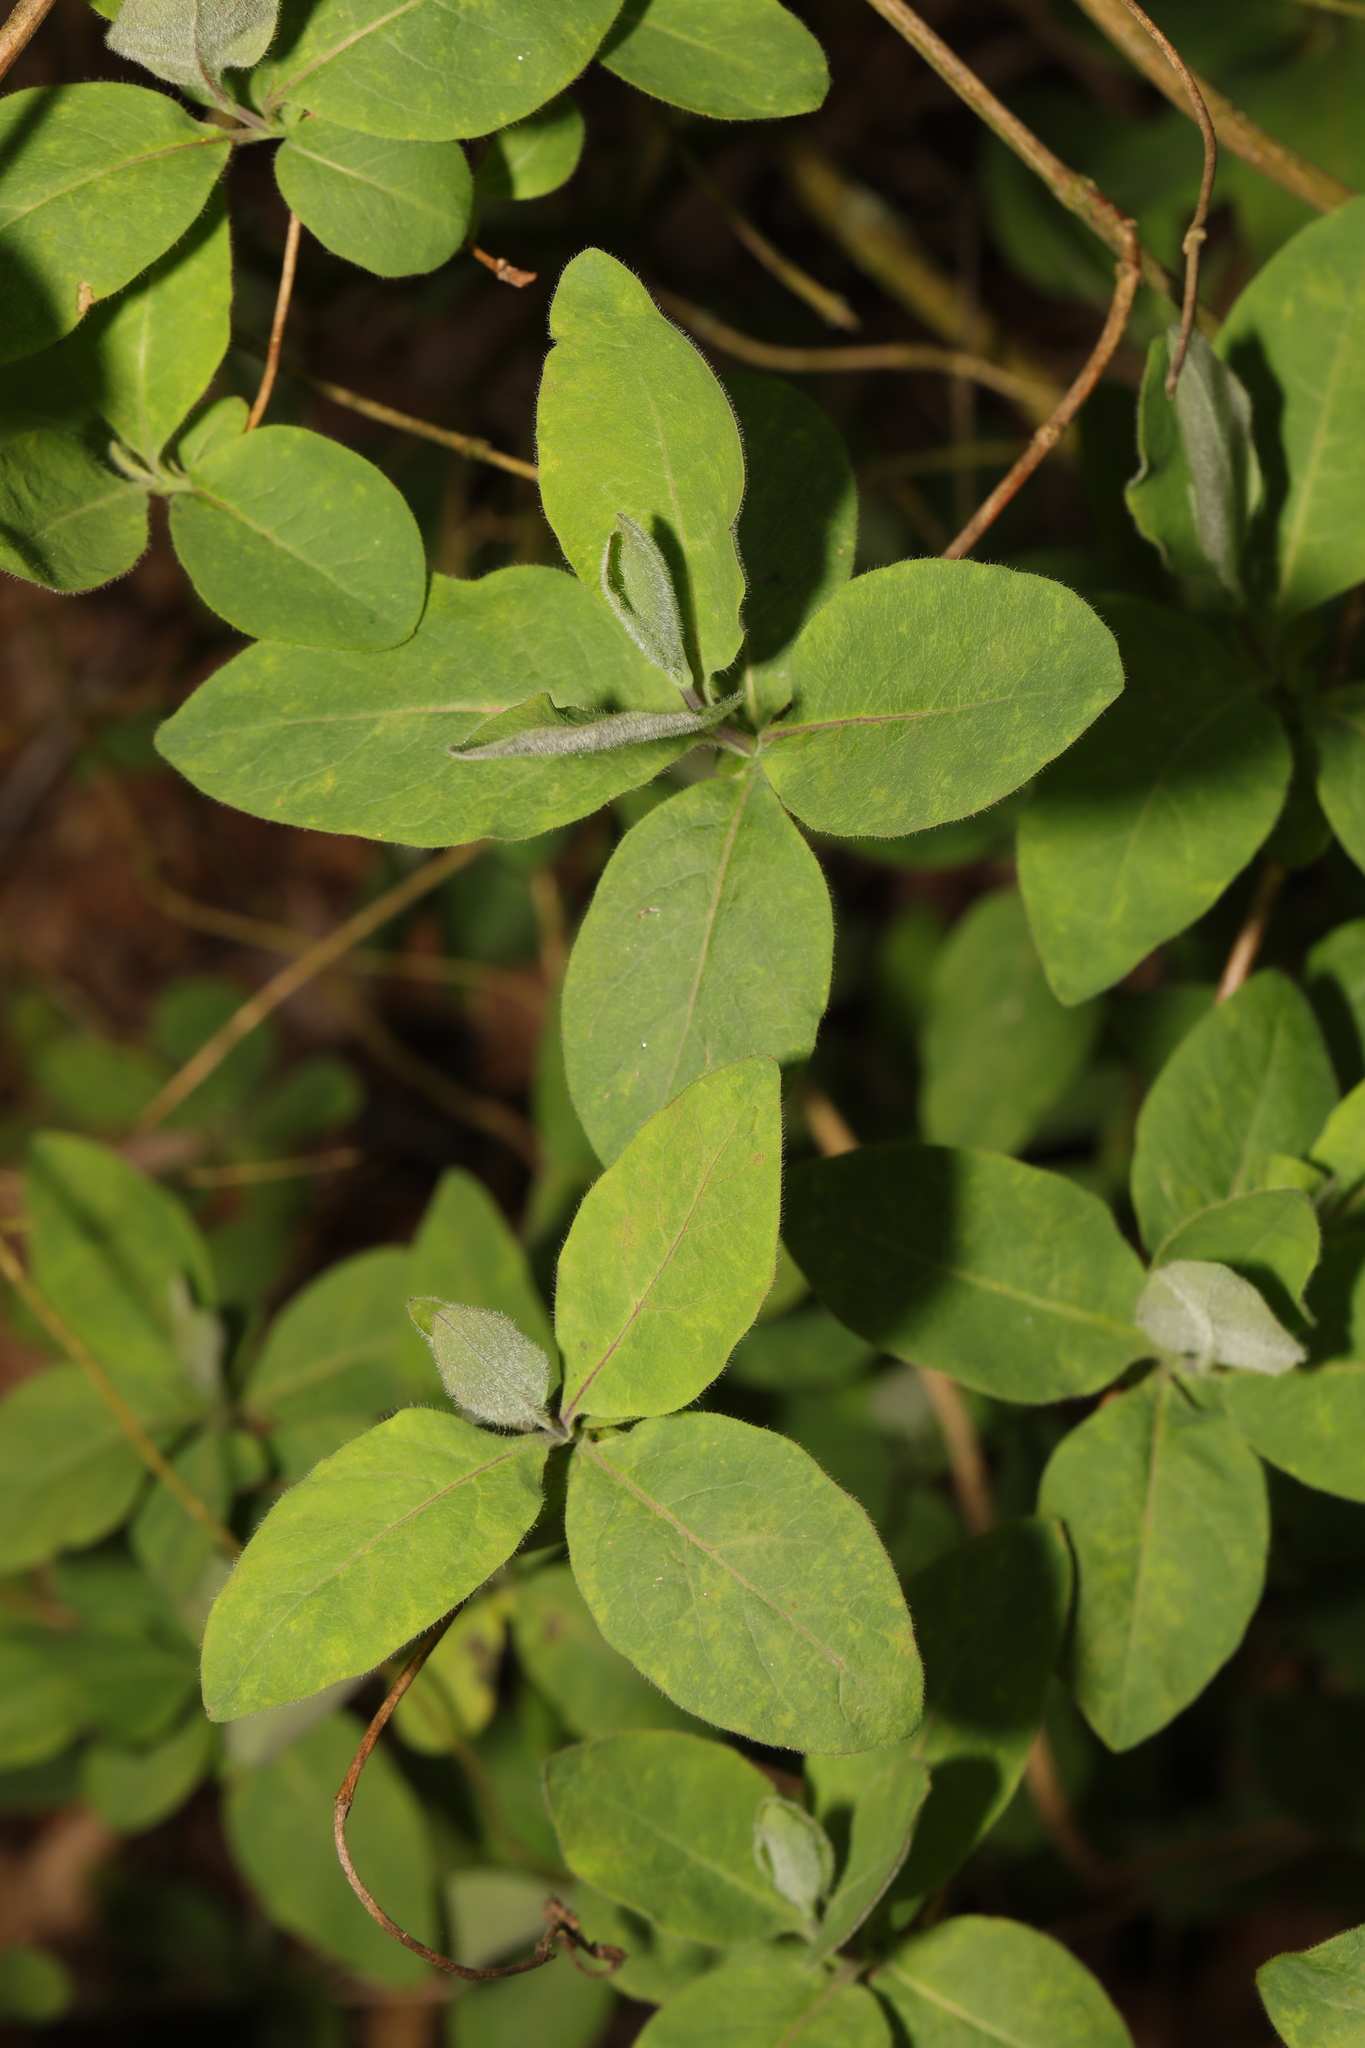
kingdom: Plantae
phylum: Tracheophyta
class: Magnoliopsida
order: Dipsacales
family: Caprifoliaceae
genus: Lonicera
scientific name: Lonicera periclymenum
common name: European honeysuckle
